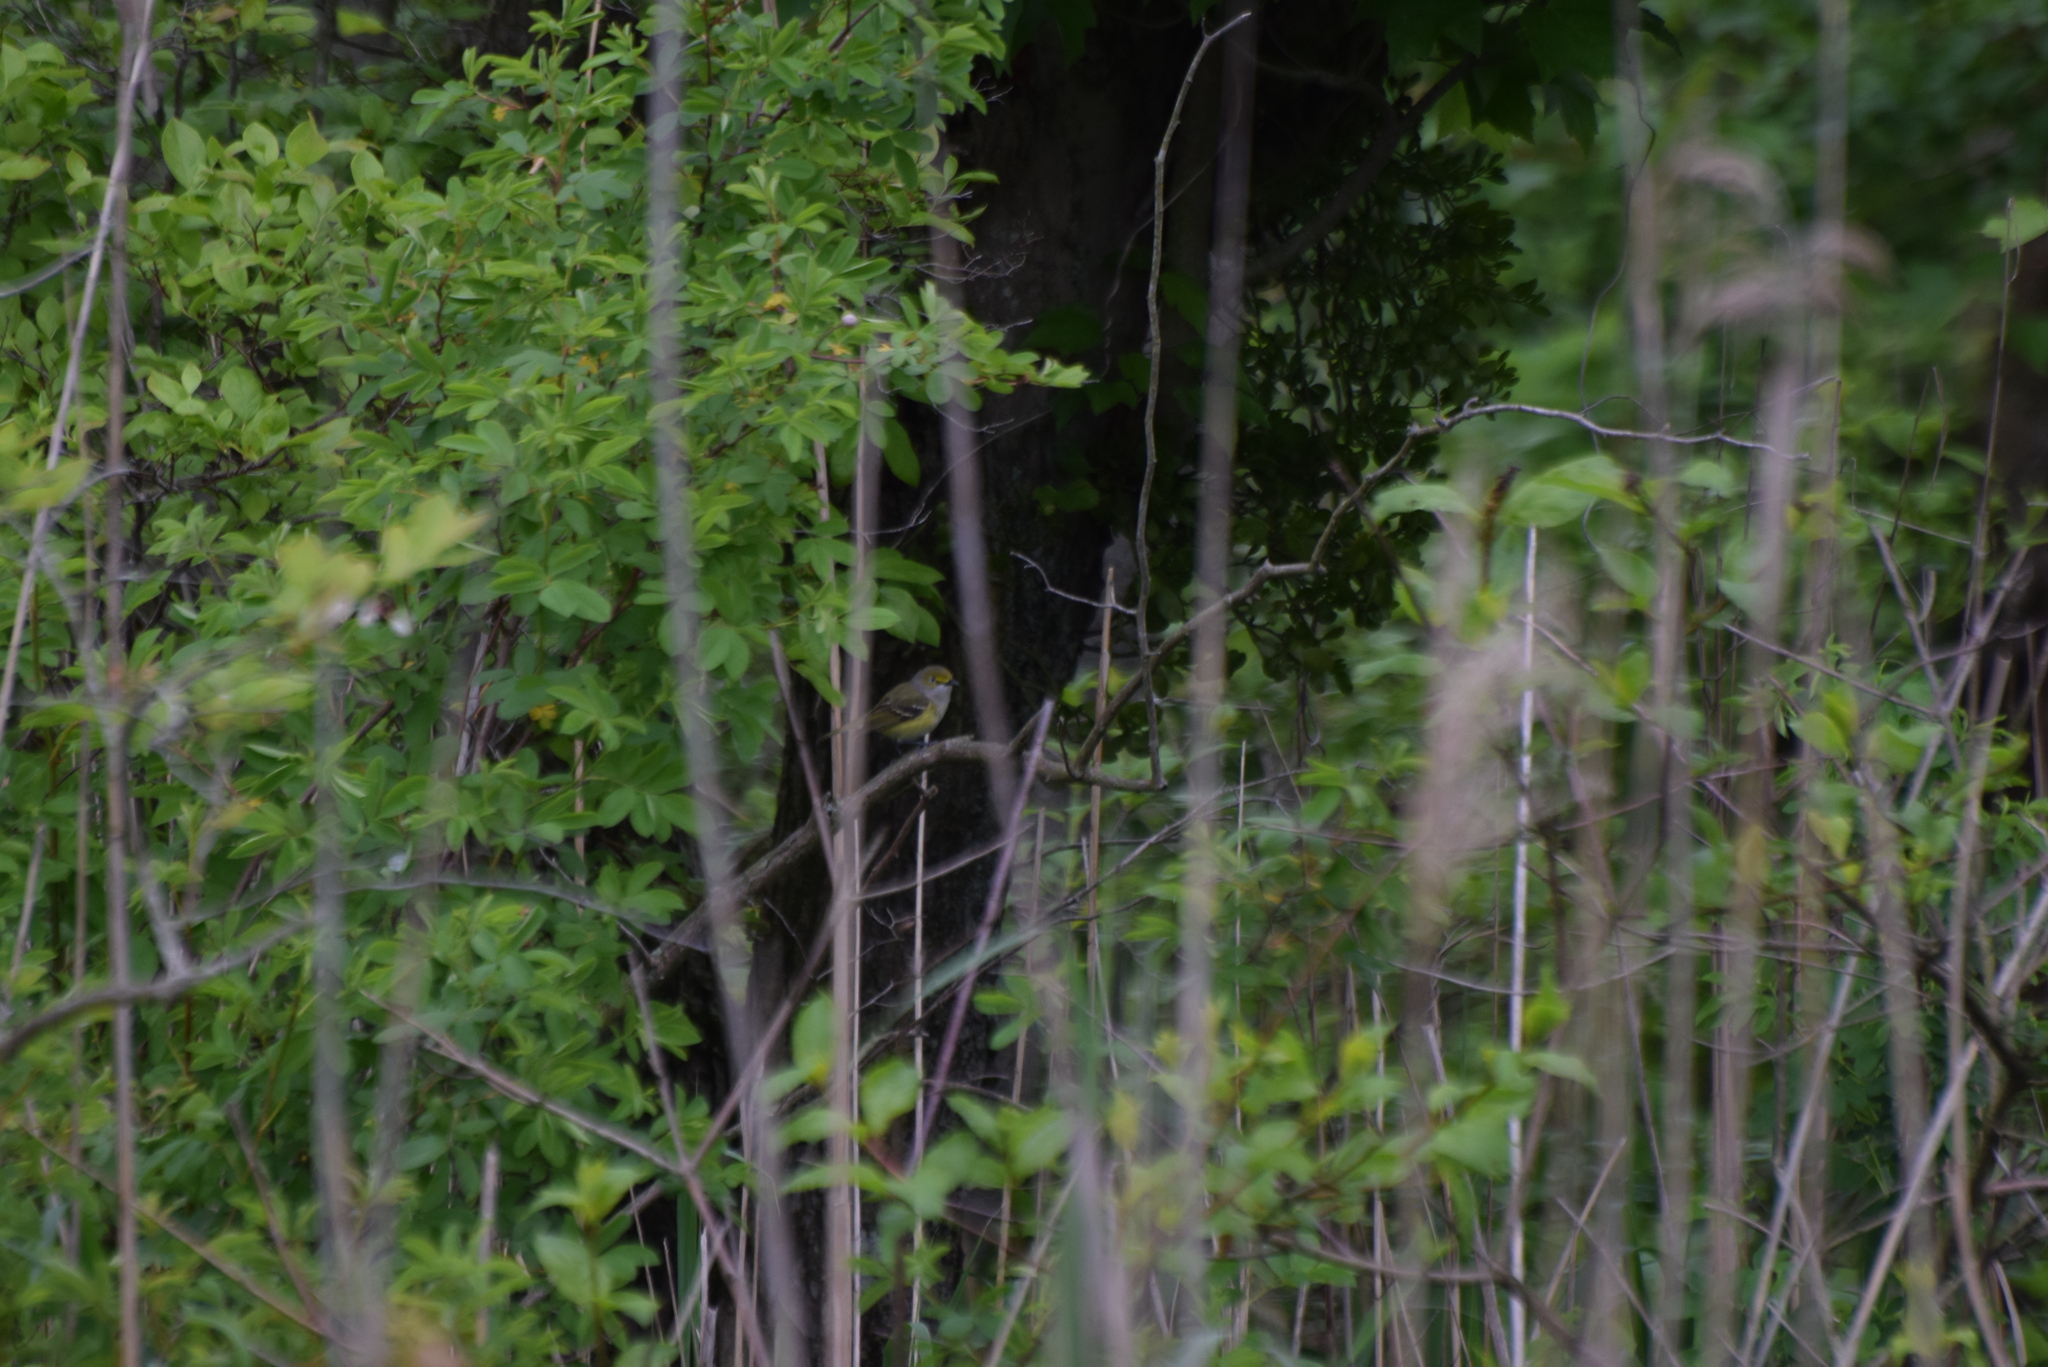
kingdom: Animalia
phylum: Chordata
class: Aves
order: Passeriformes
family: Vireonidae
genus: Vireo
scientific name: Vireo griseus
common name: White-eyed vireo
